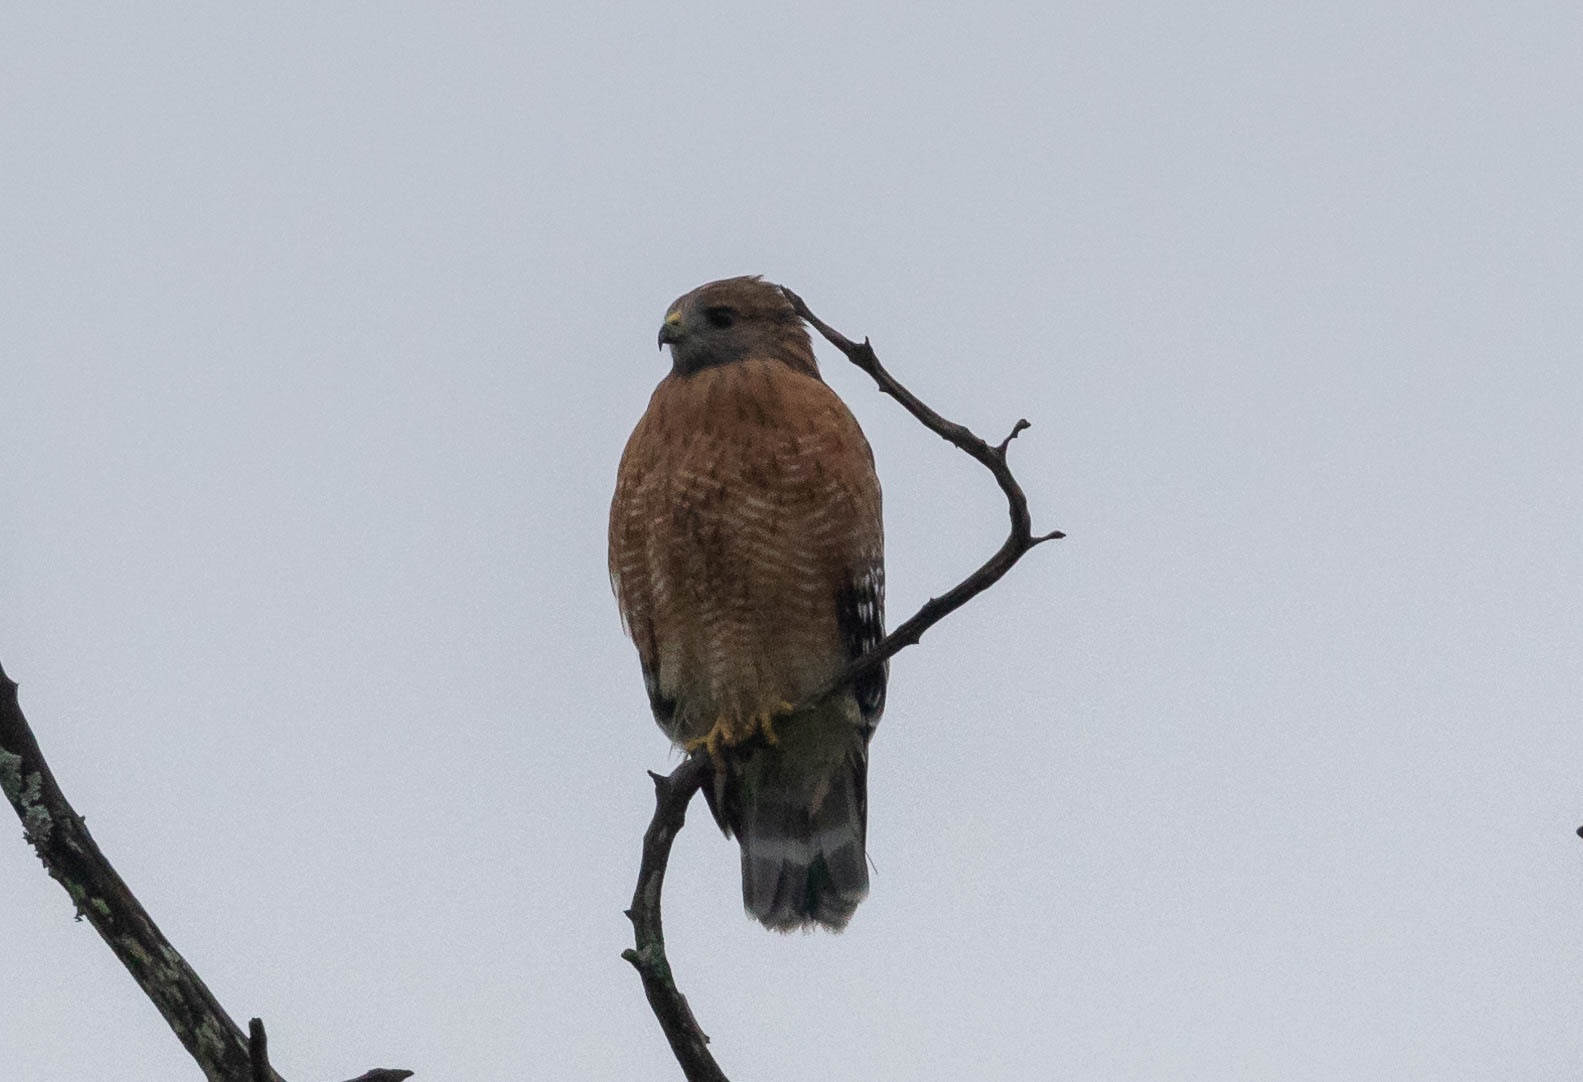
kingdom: Animalia
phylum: Chordata
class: Aves
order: Accipitriformes
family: Accipitridae
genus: Buteo
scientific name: Buteo lineatus
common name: Red-shouldered hawk
